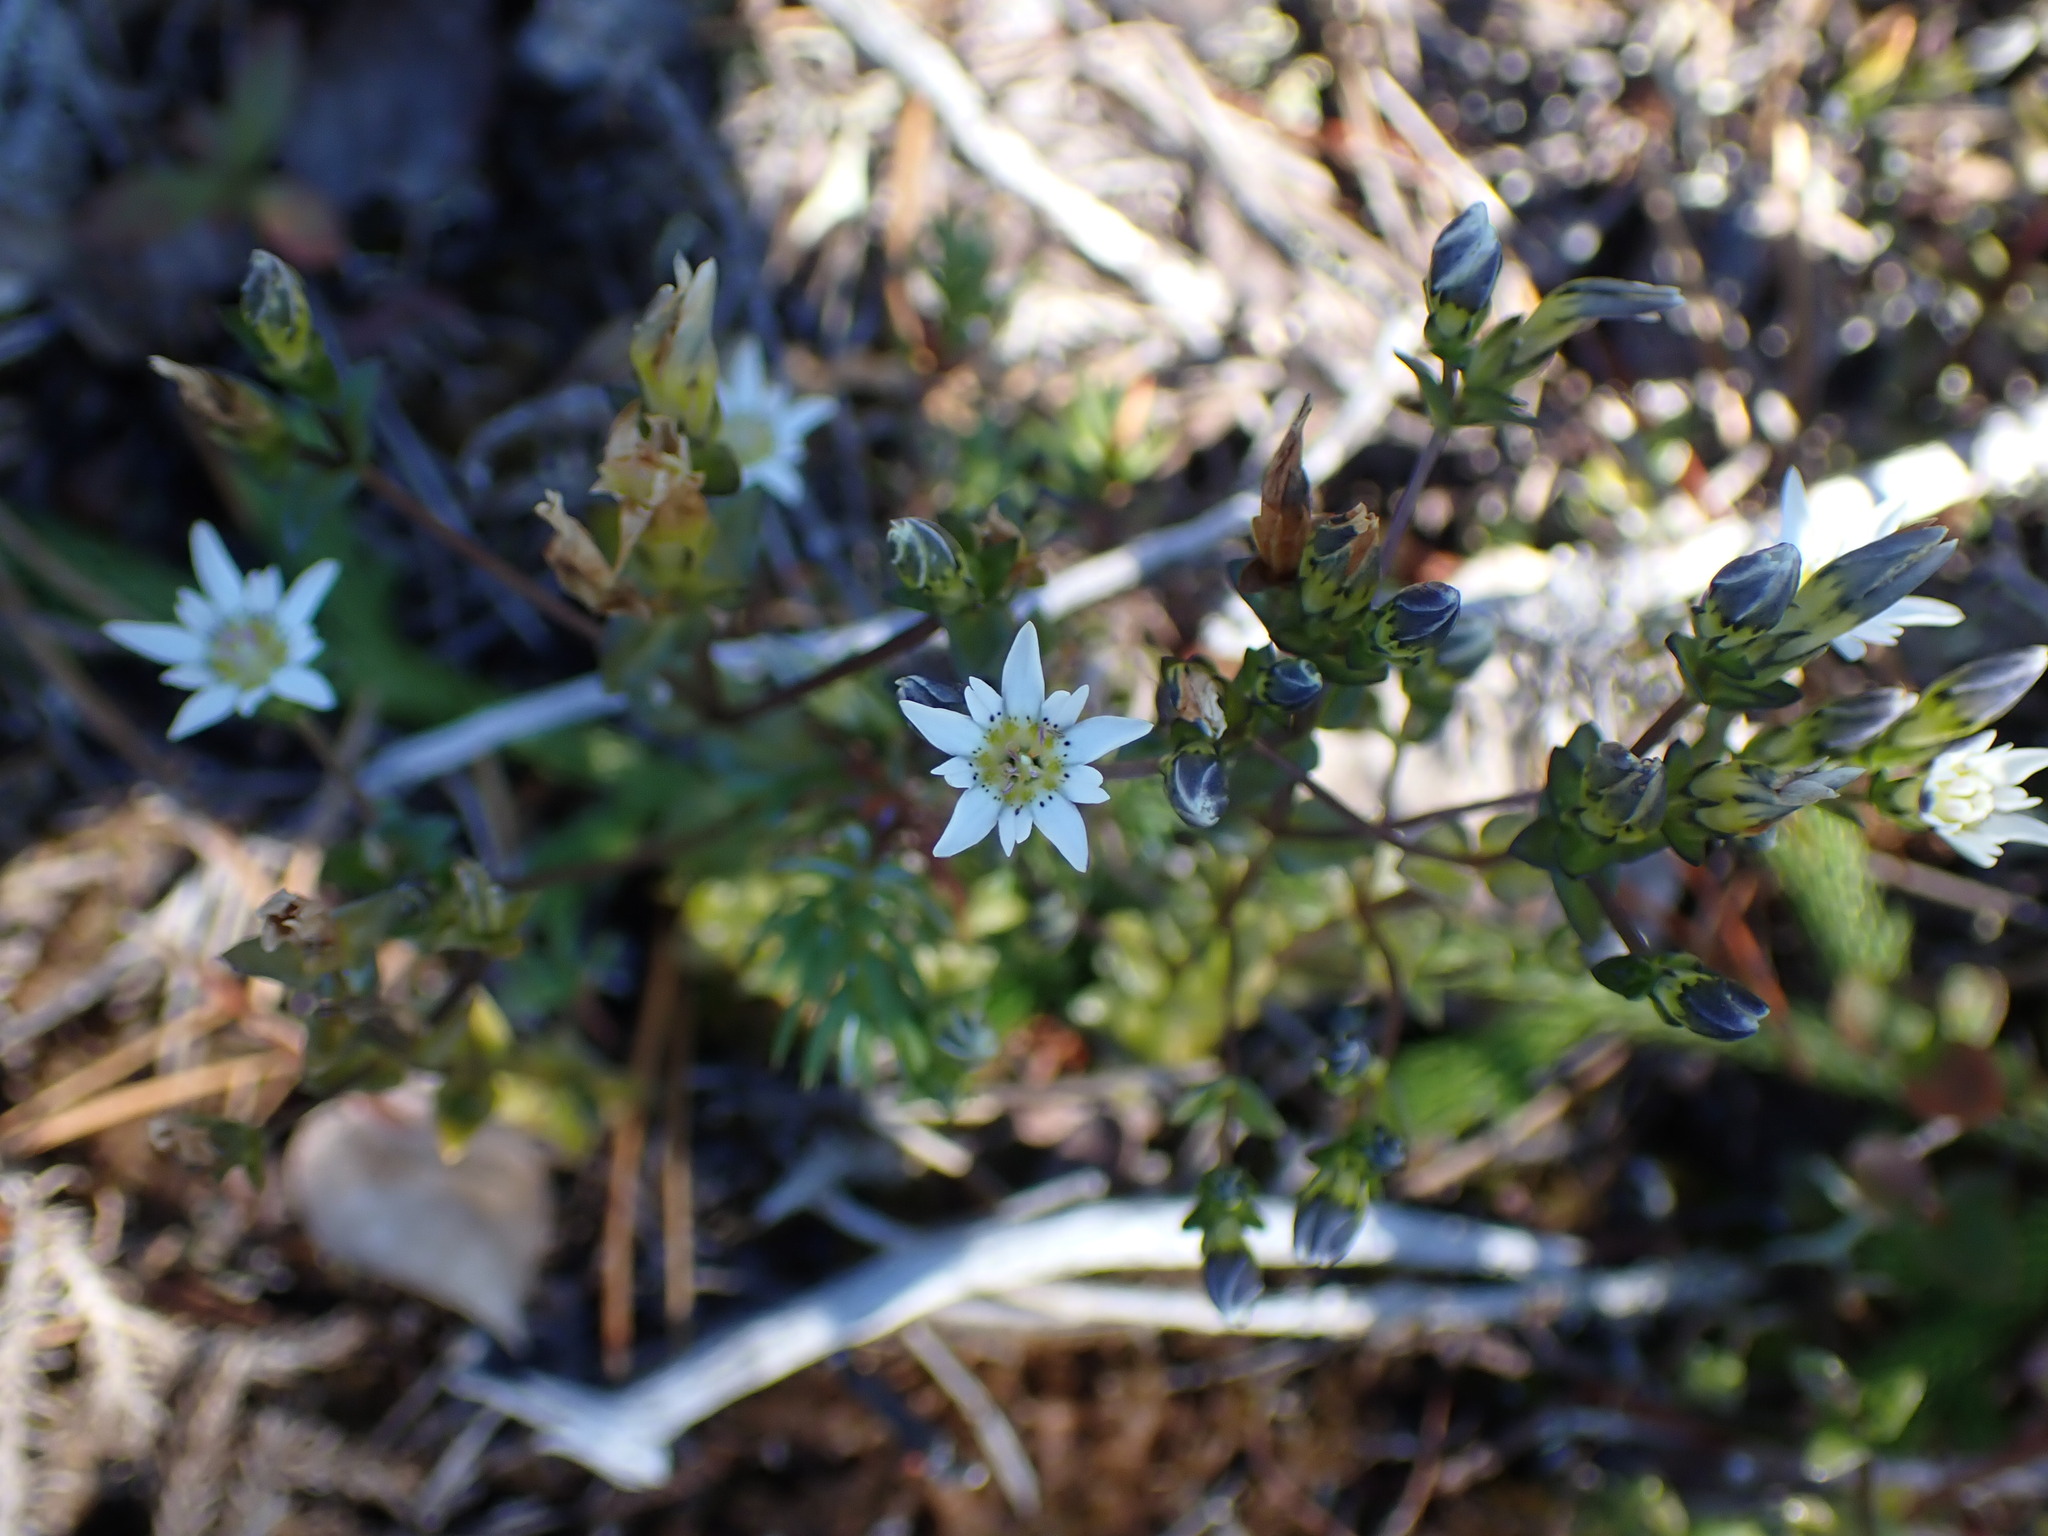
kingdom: Plantae
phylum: Tracheophyta
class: Magnoliopsida
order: Gentianales
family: Gentianaceae
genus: Gentiana
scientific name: Gentiana douglasiana
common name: Swamp gentian
